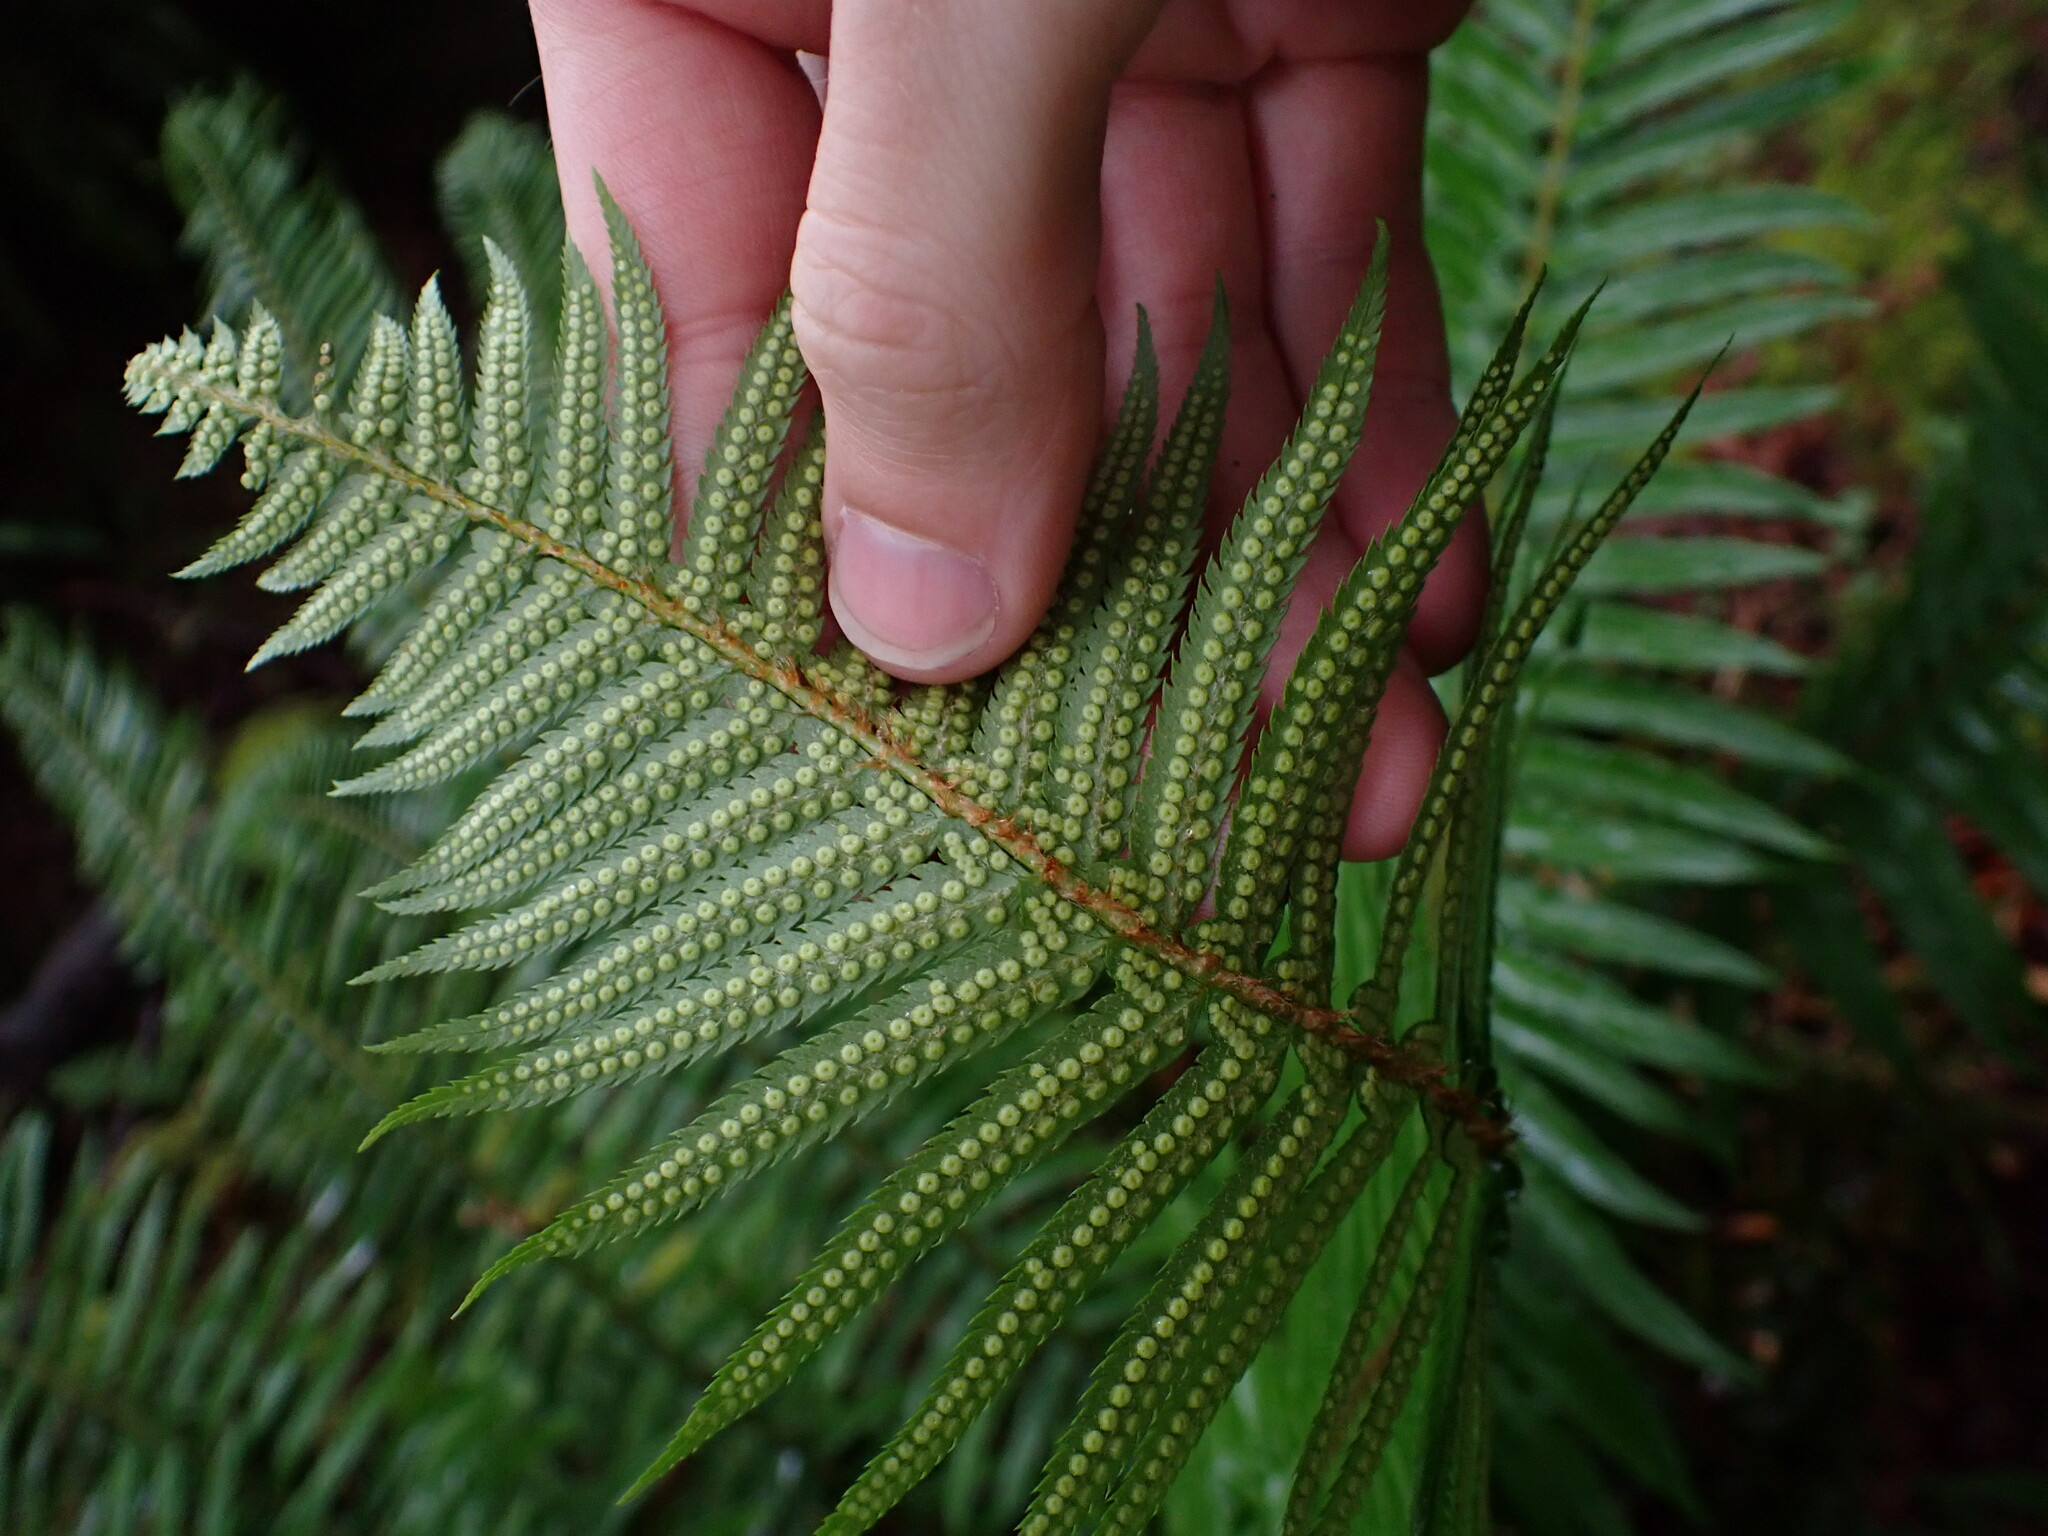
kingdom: Plantae
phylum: Tracheophyta
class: Polypodiopsida
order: Polypodiales
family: Dryopteridaceae
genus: Polystichum
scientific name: Polystichum munitum
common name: Western sword-fern
